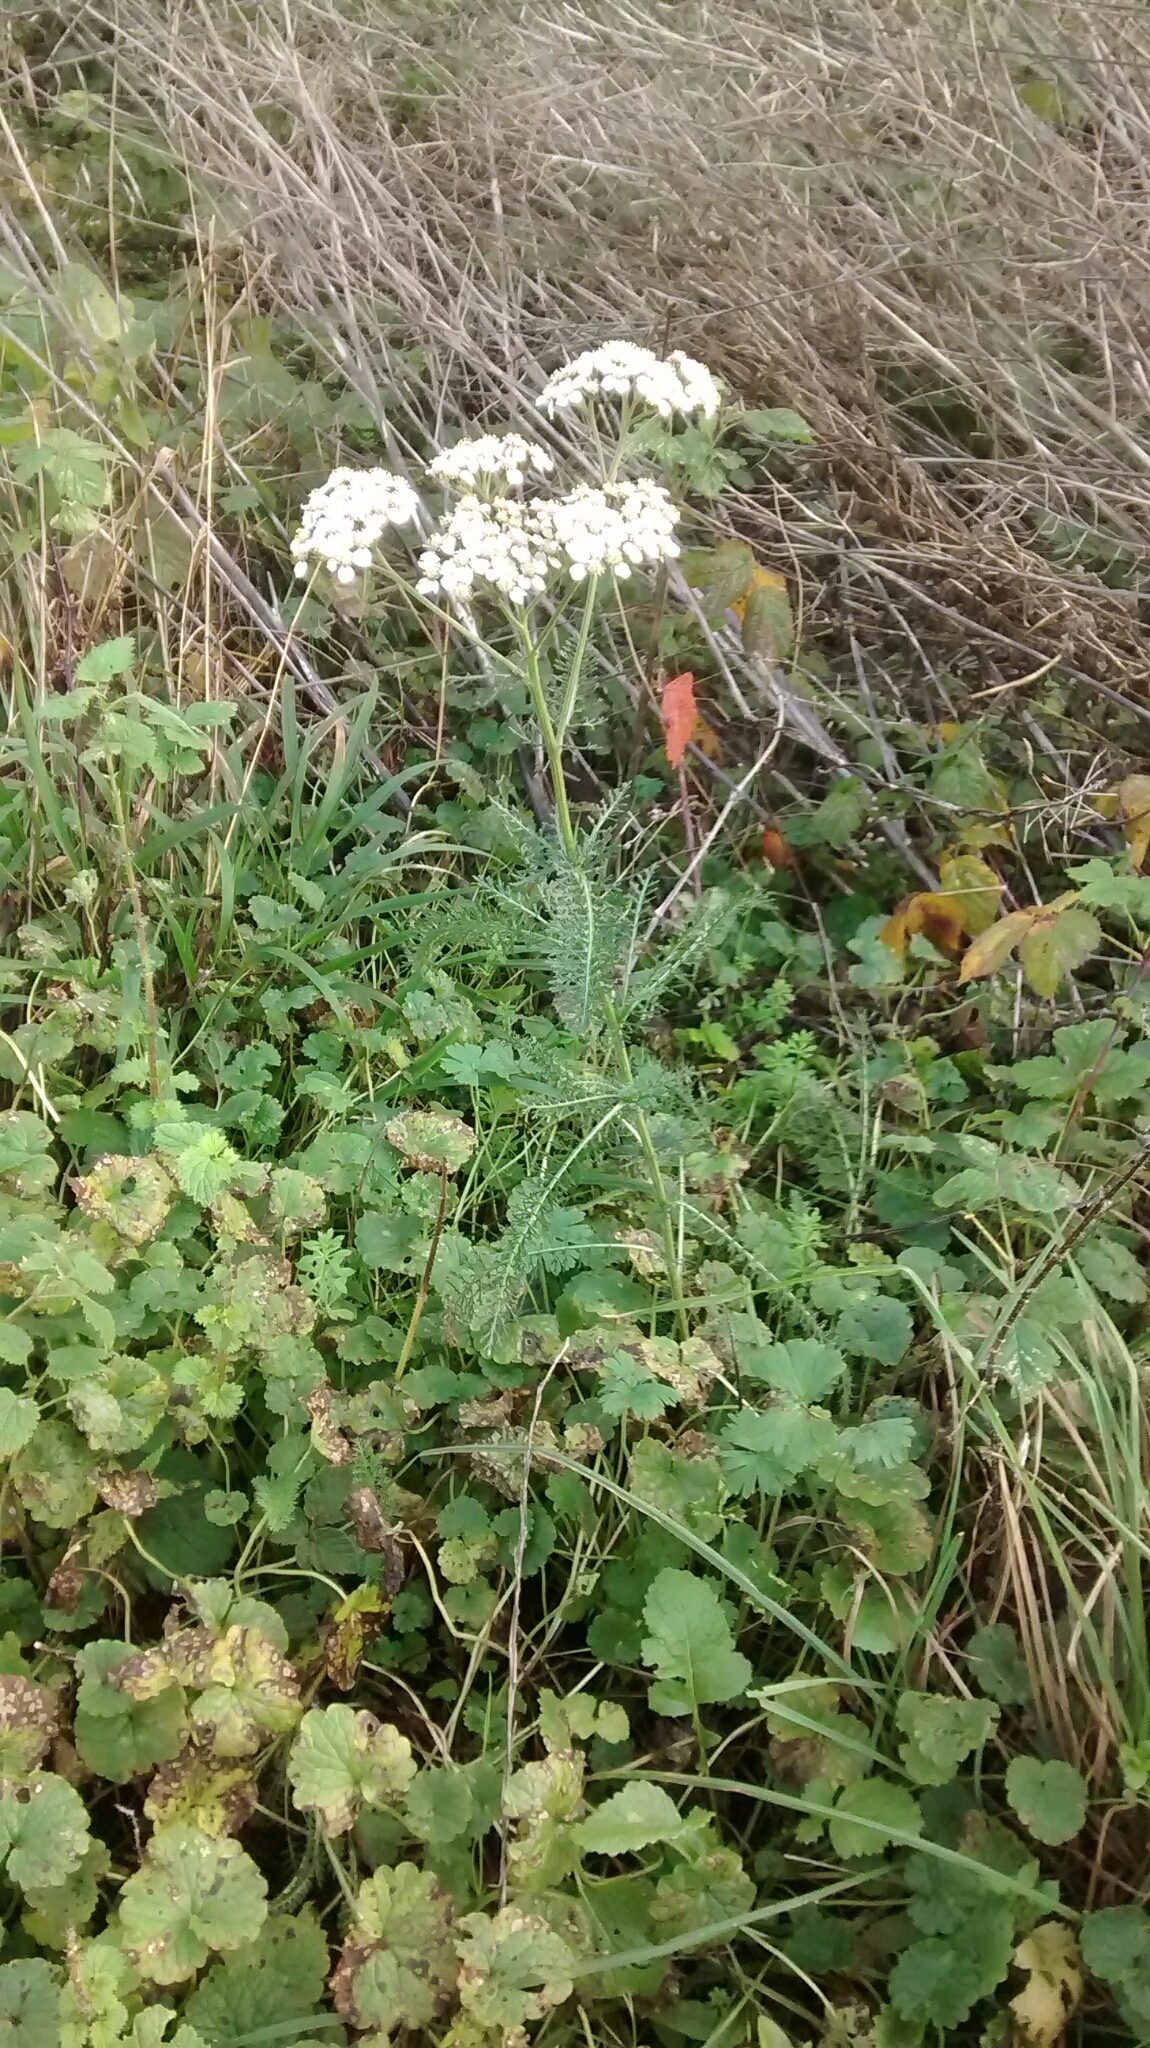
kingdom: Plantae
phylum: Tracheophyta
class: Magnoliopsida
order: Asterales
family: Asteraceae
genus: Achillea
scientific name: Achillea millefolium
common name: Yarrow
